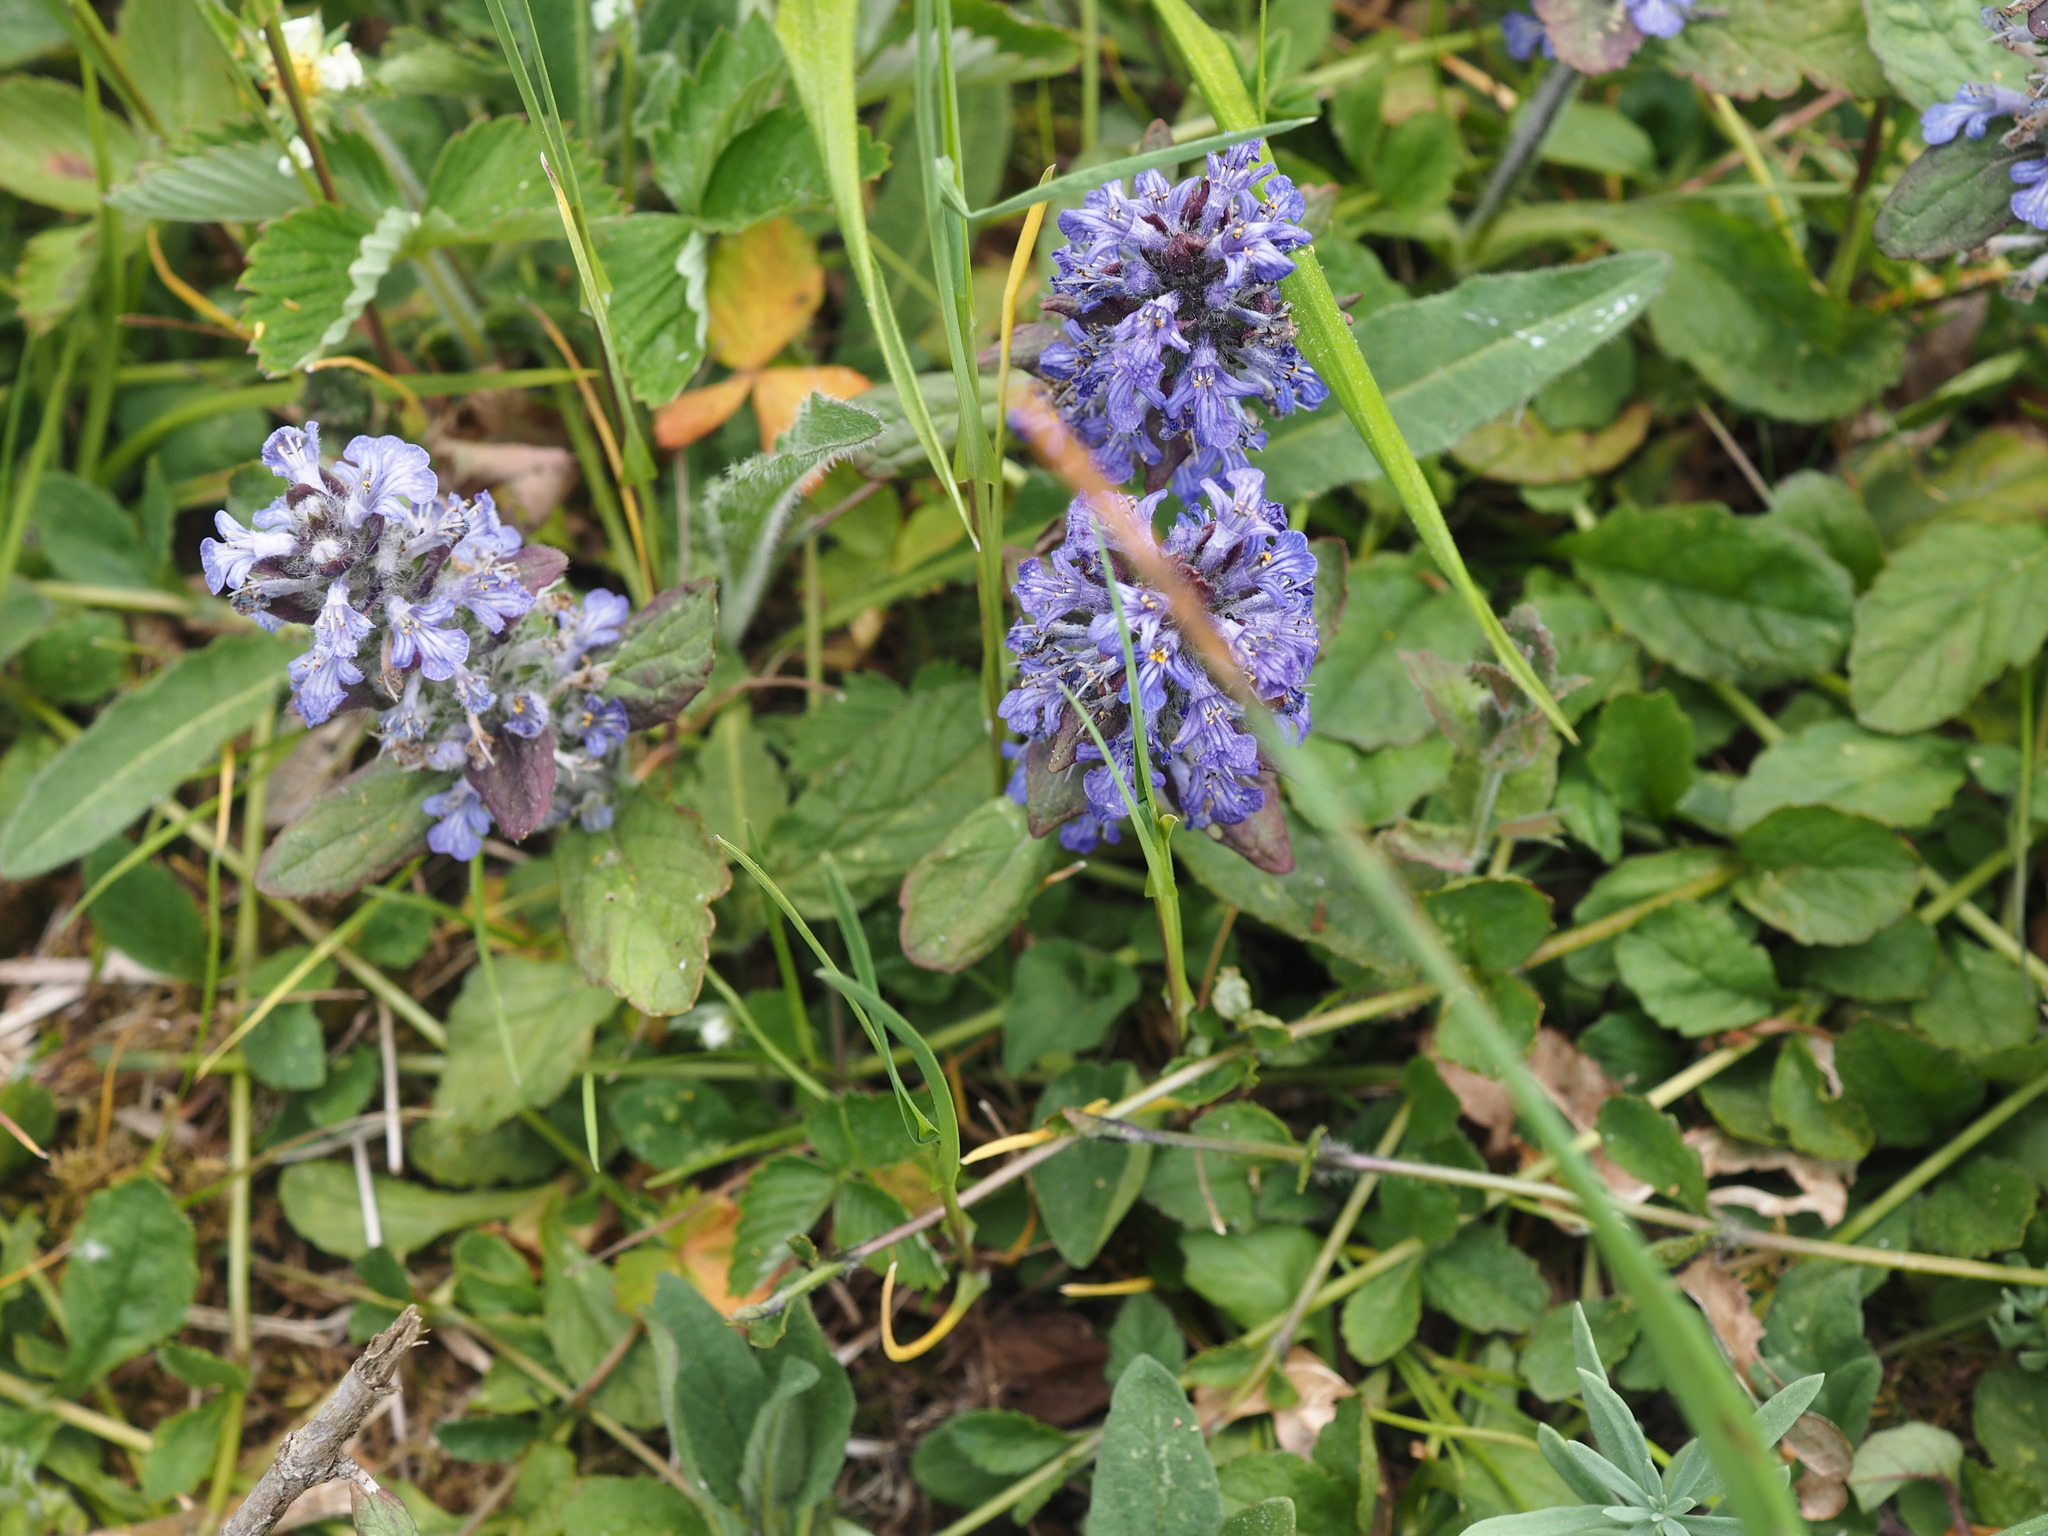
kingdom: Plantae
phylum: Tracheophyta
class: Magnoliopsida
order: Lamiales
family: Lamiaceae
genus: Ajuga
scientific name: Ajuga reptans
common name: Bugle
